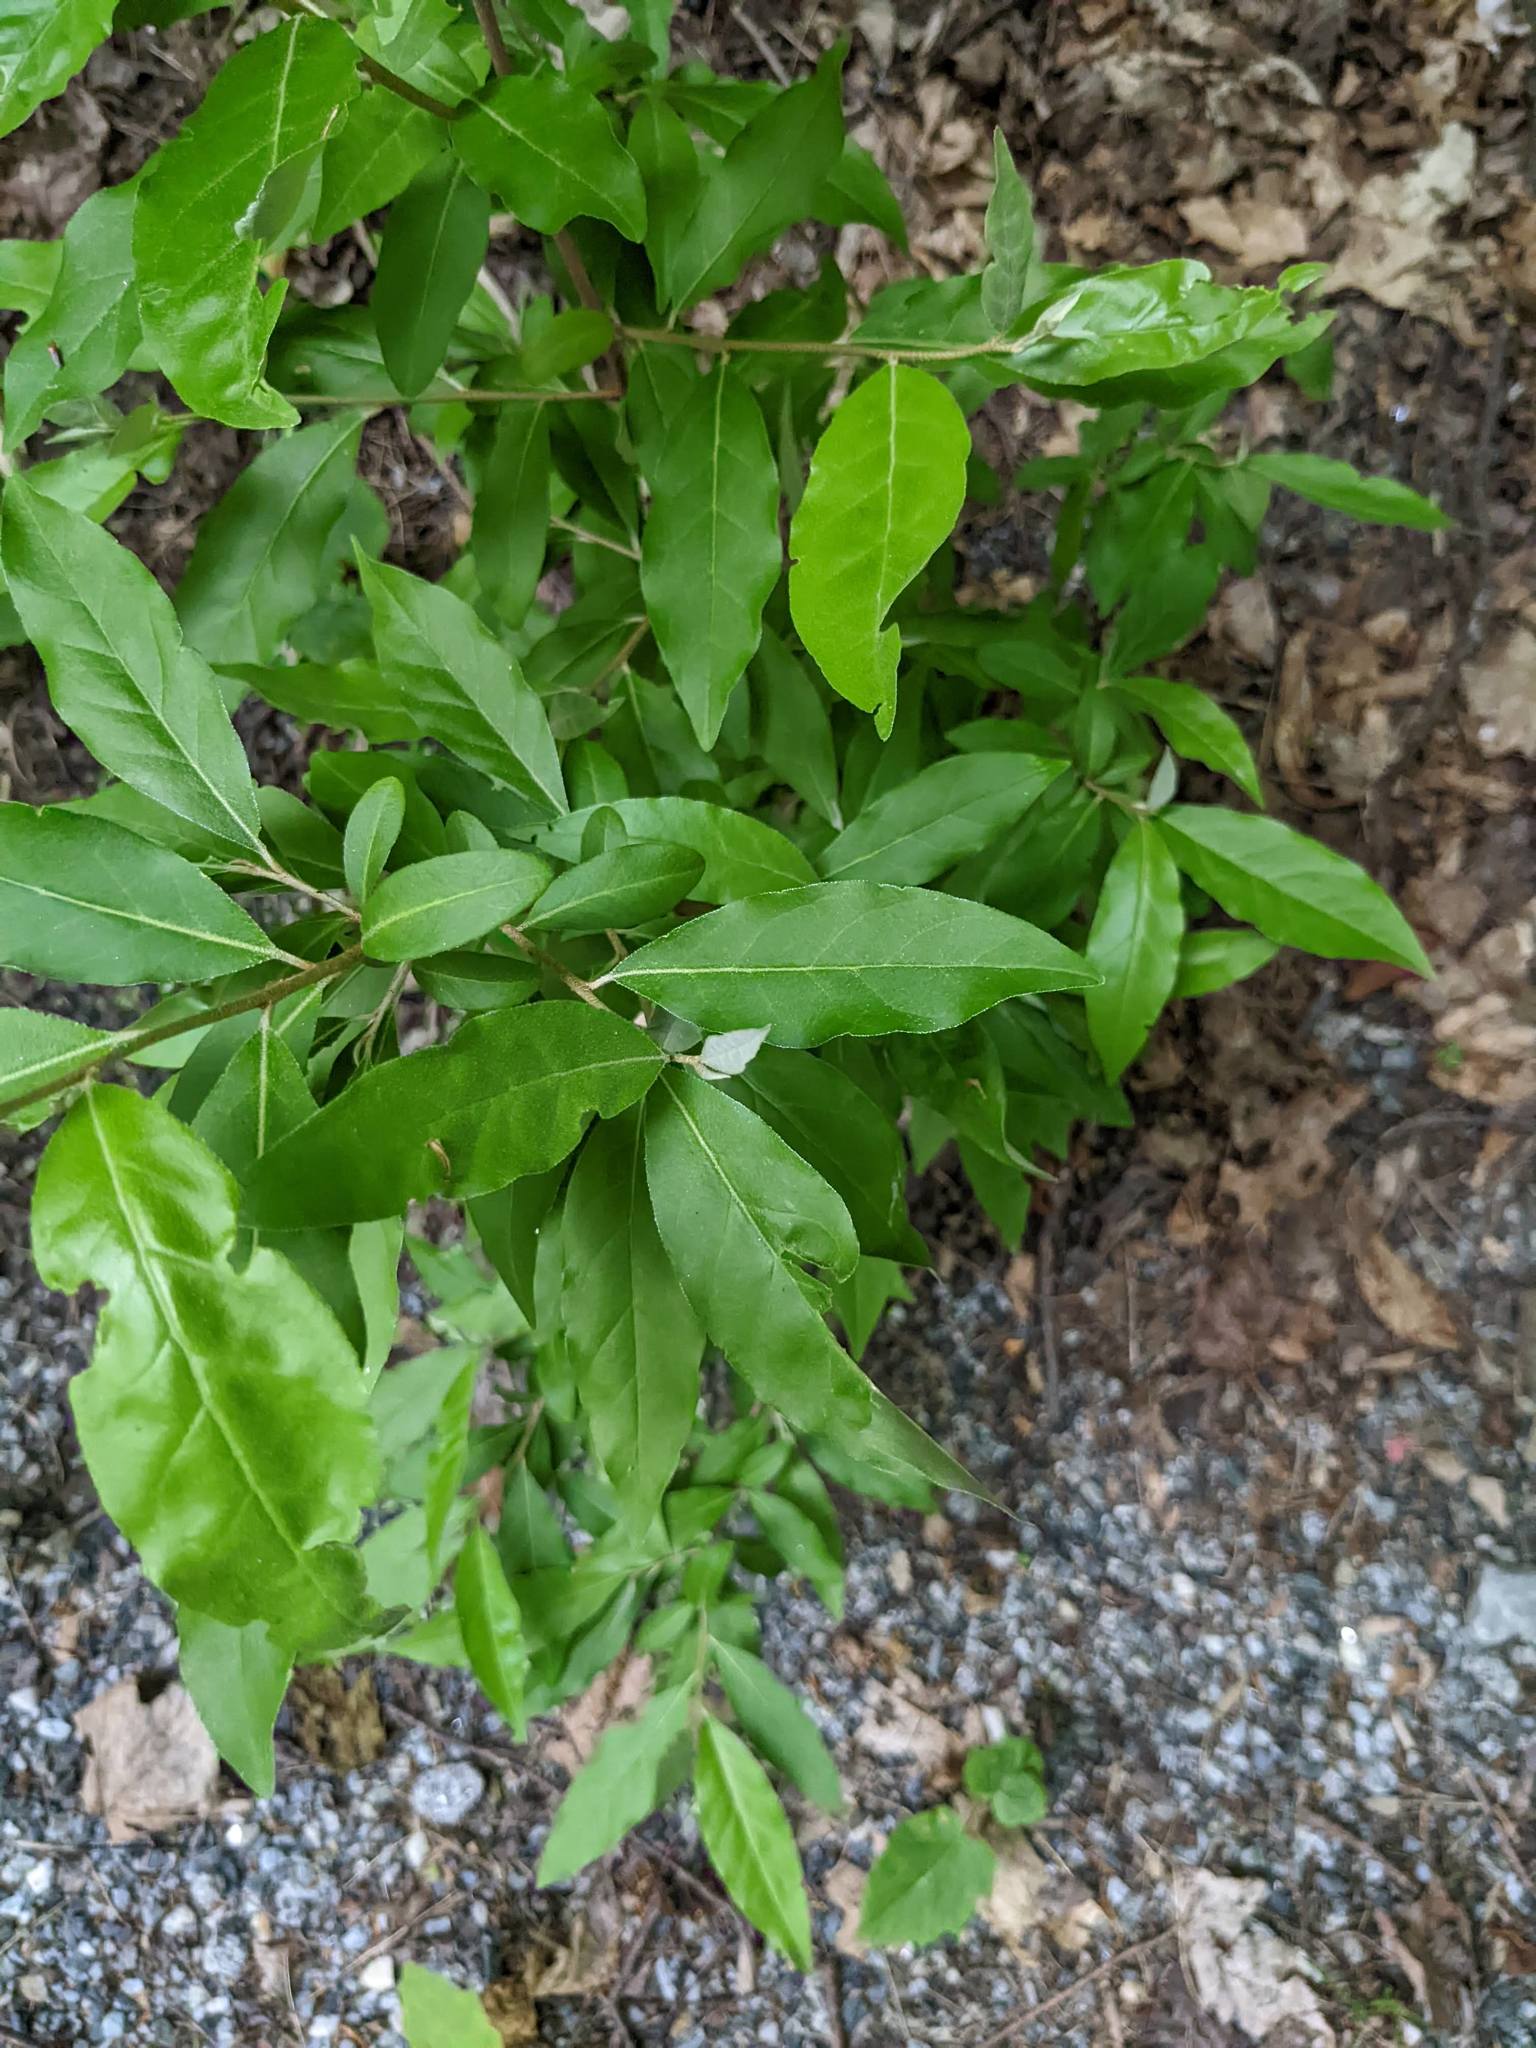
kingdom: Plantae
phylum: Tracheophyta
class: Magnoliopsida
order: Rosales
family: Elaeagnaceae
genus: Elaeagnus
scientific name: Elaeagnus umbellata
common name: Autumn olive
